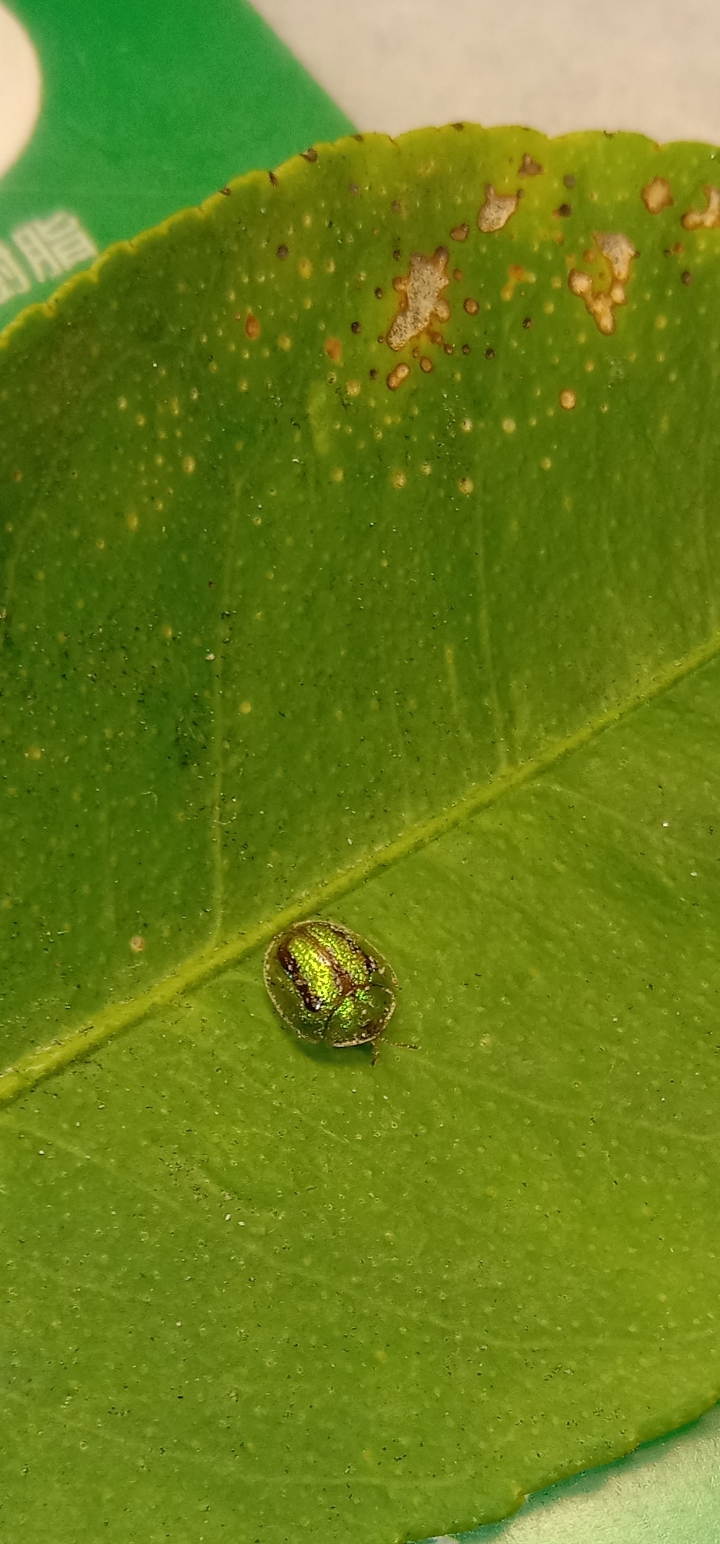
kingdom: Animalia
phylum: Arthropoda
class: Insecta
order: Coleoptera
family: Chrysomelidae
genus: Cassida
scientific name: Cassida circumdata
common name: Tortoise beetle
